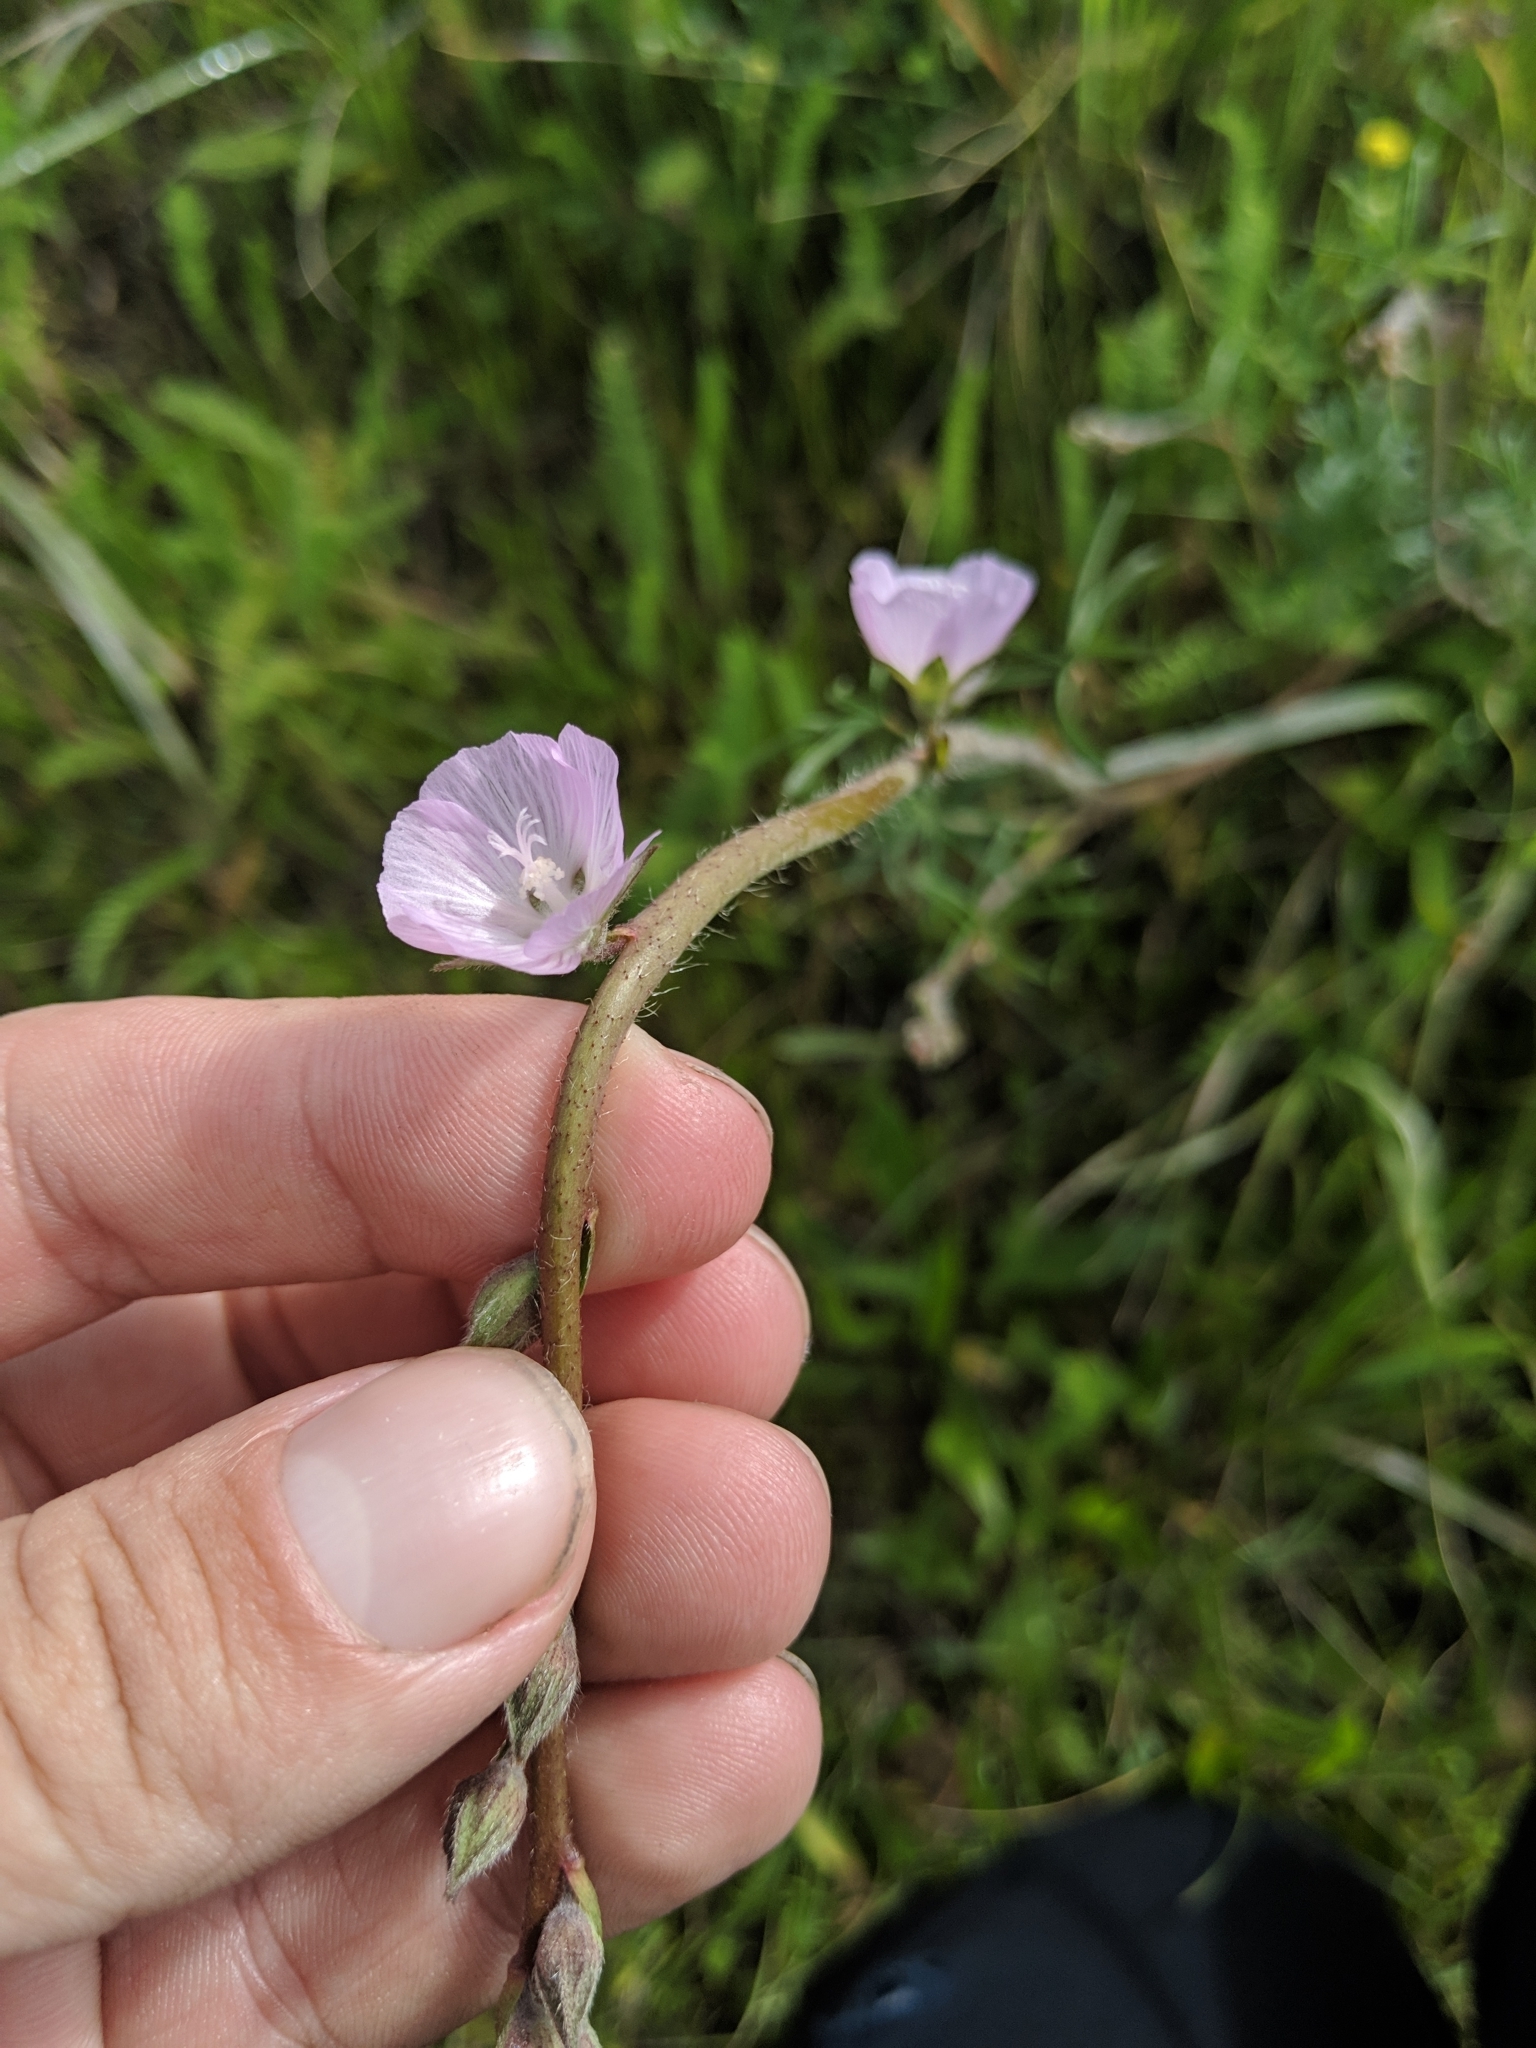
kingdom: Plantae
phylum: Tracheophyta
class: Magnoliopsida
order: Malvales
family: Malvaceae
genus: Sidalcea
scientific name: Sidalcea malviflora
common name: Greek mallow
